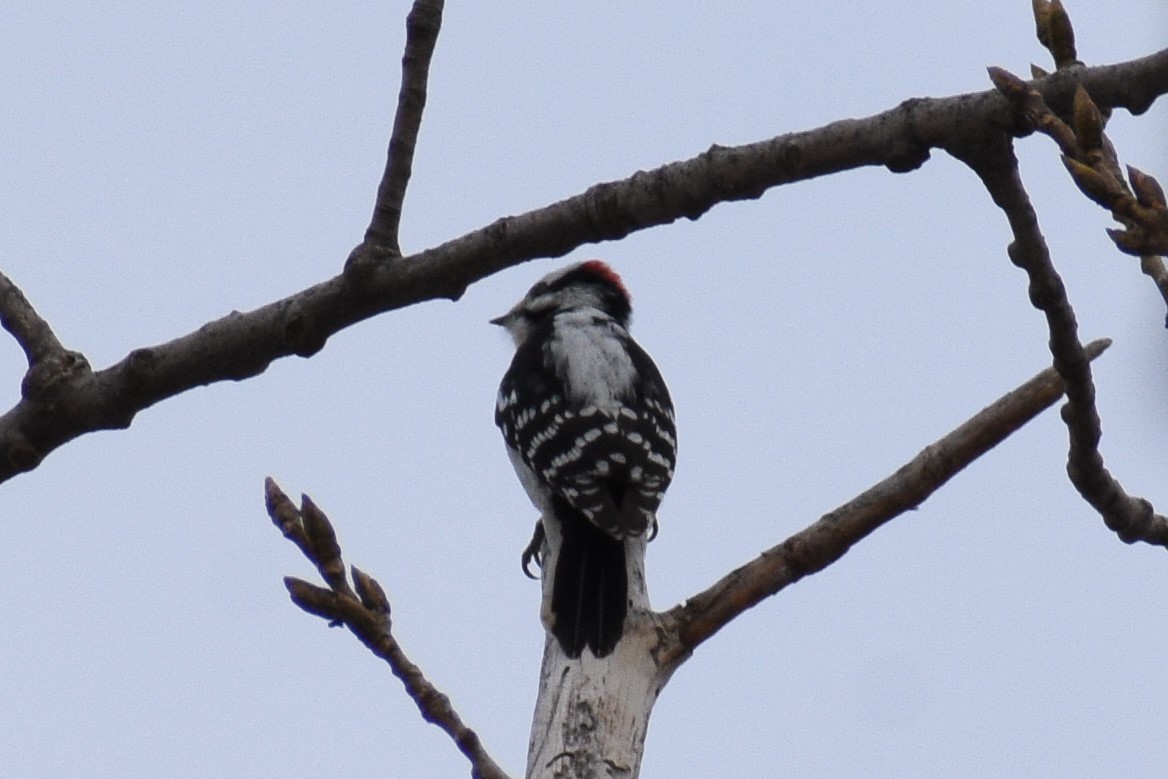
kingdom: Animalia
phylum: Chordata
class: Aves
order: Piciformes
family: Picidae
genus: Dryobates
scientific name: Dryobates pubescens
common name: Downy woodpecker
